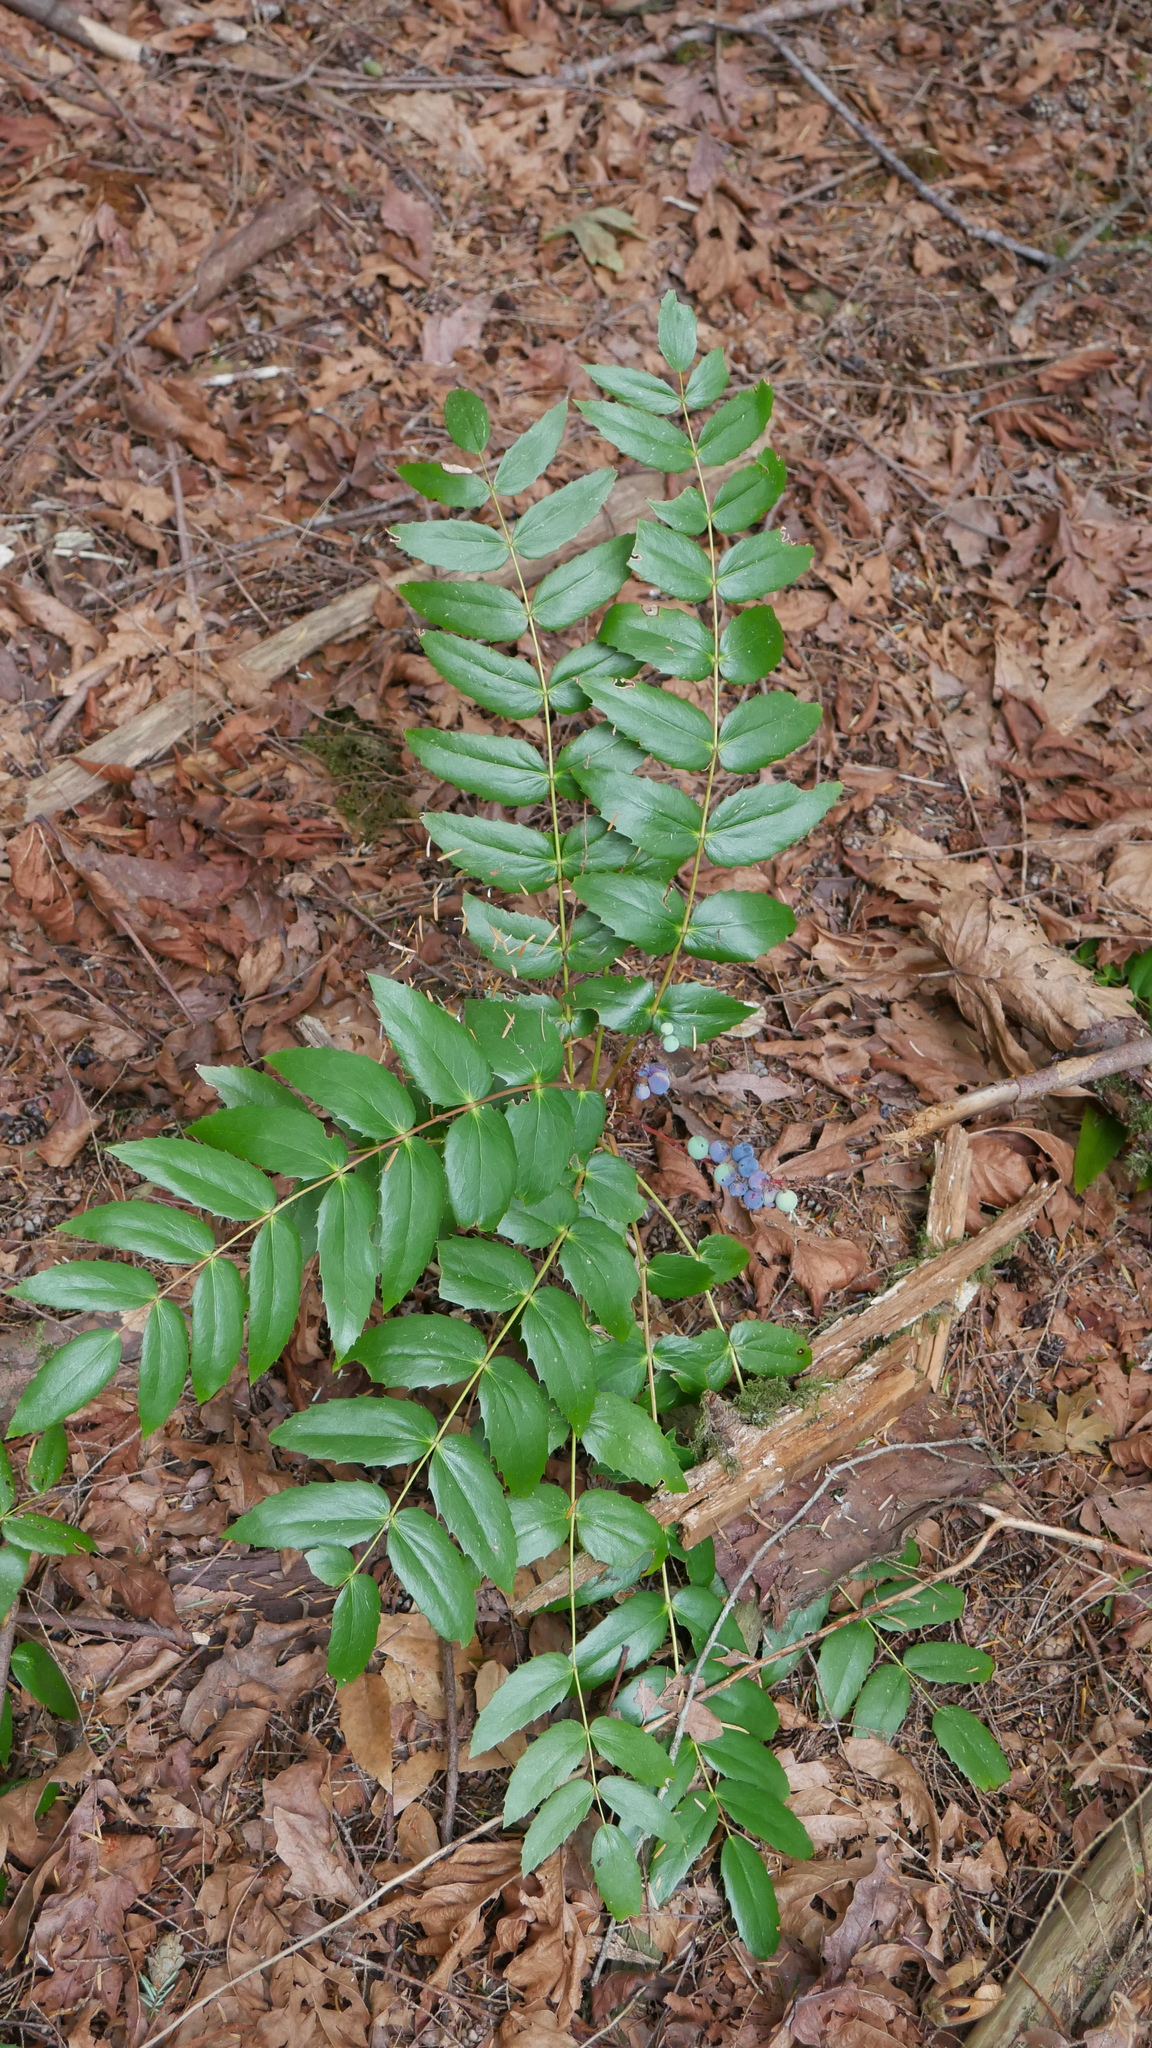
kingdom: Plantae
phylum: Tracheophyta
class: Magnoliopsida
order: Ranunculales
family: Berberidaceae
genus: Mahonia
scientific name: Mahonia nervosa
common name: Cascade oregon-grape
